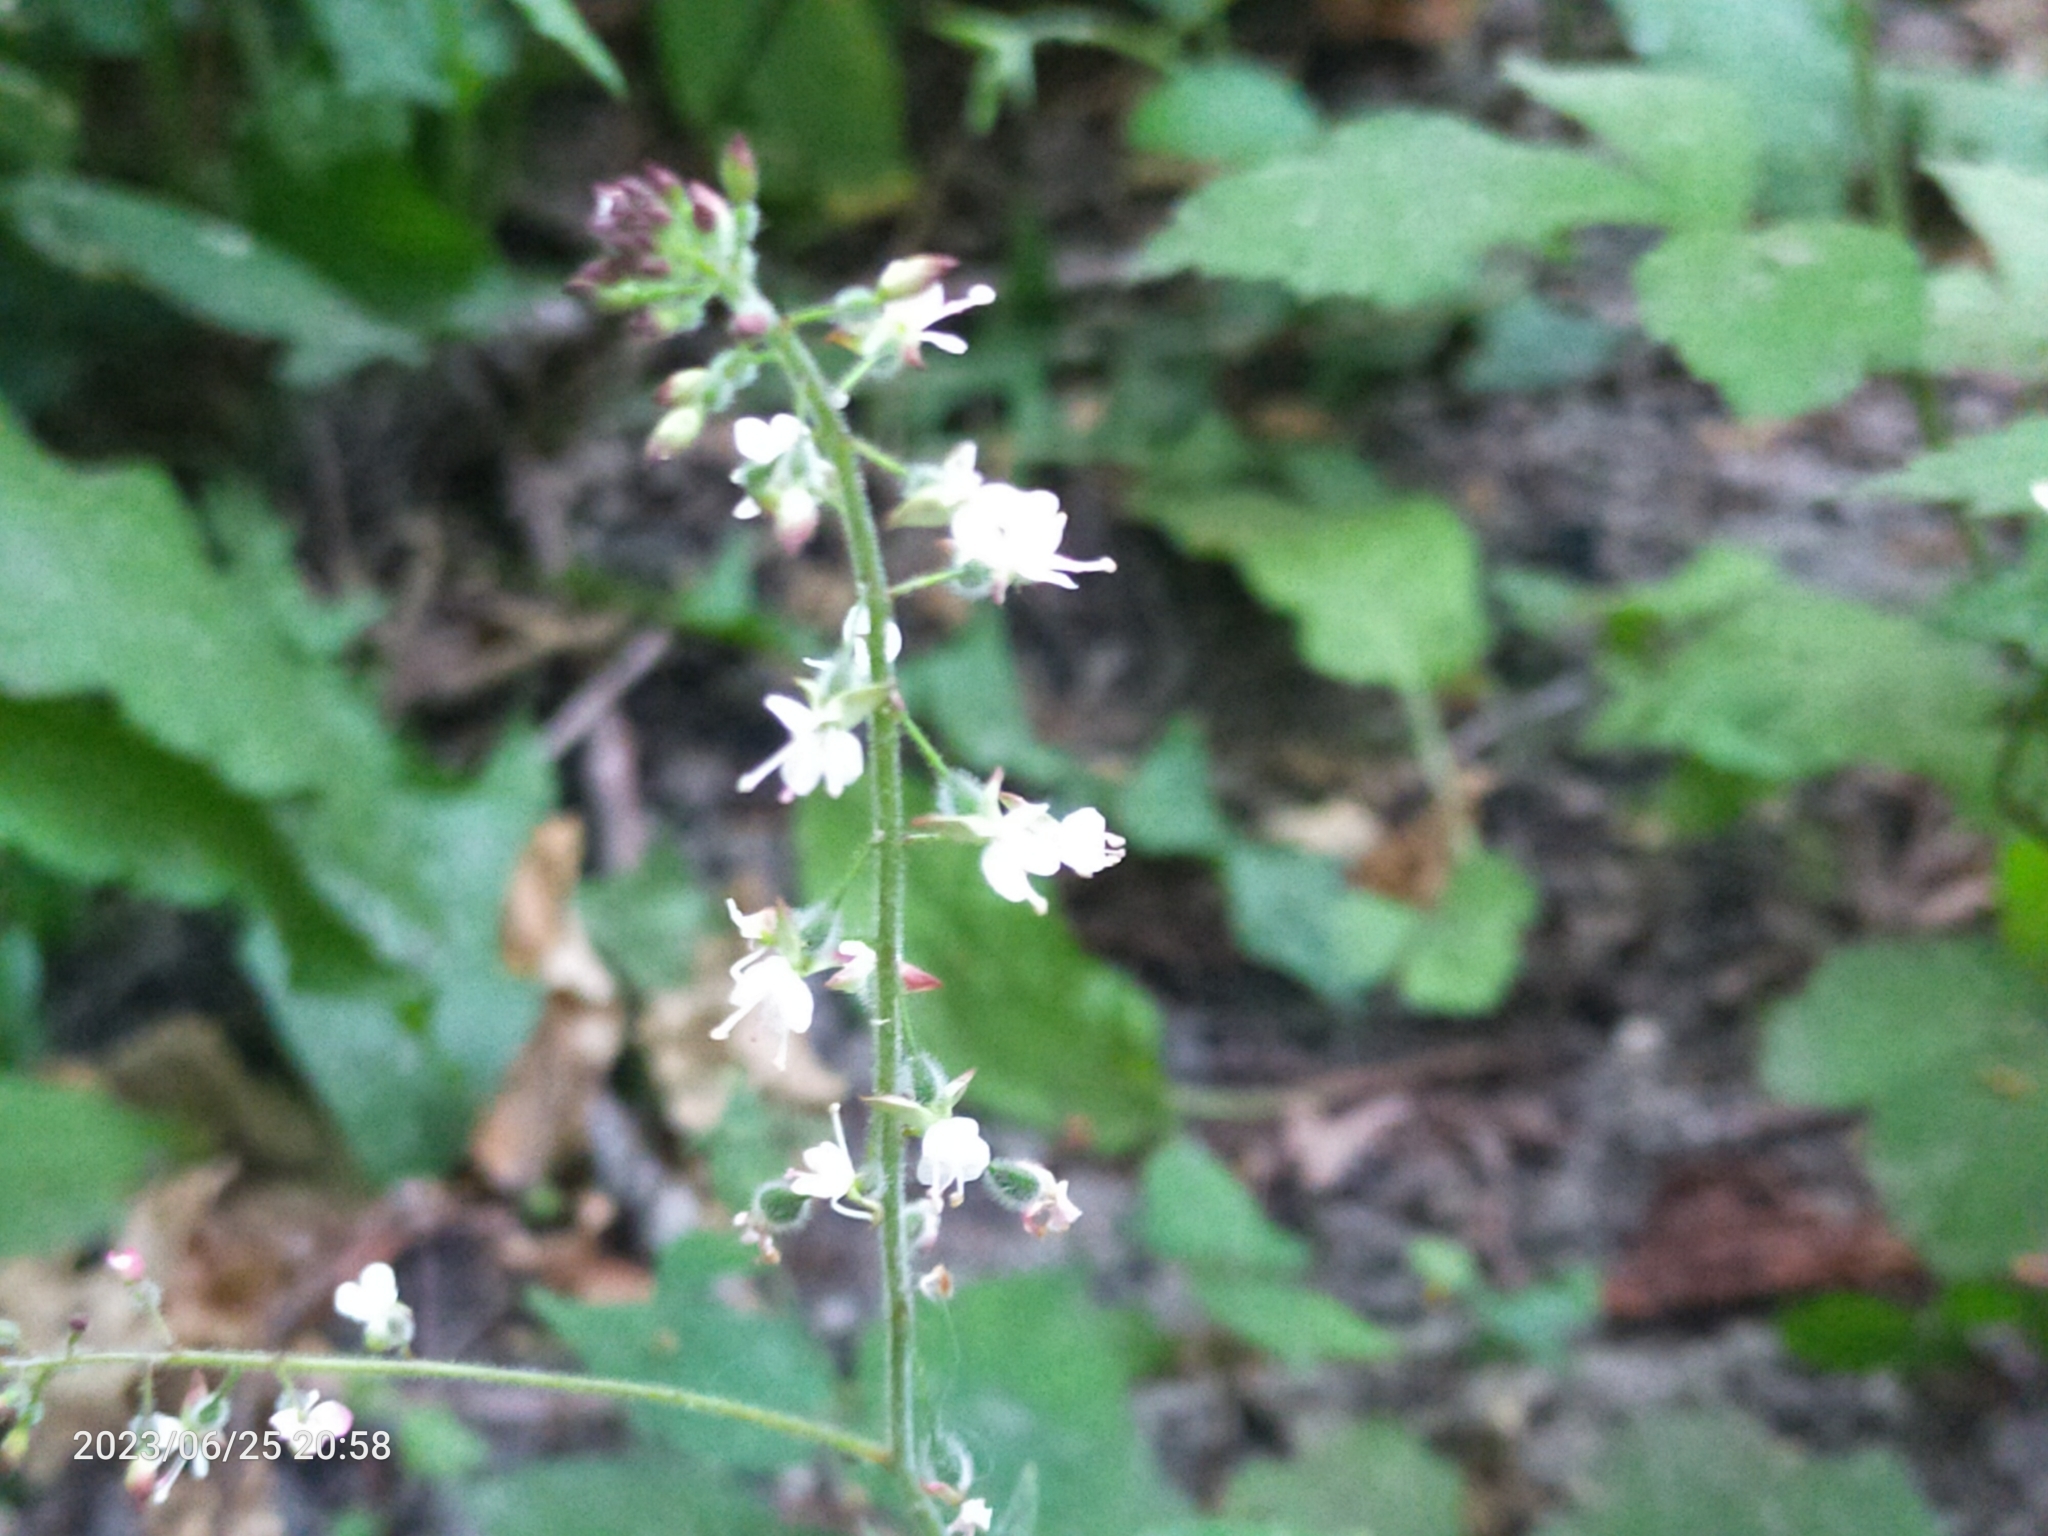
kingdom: Plantae
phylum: Tracheophyta
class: Magnoliopsida
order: Myrtales
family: Onagraceae
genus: Circaea
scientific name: Circaea lutetiana
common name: Enchanter's-nightshade
